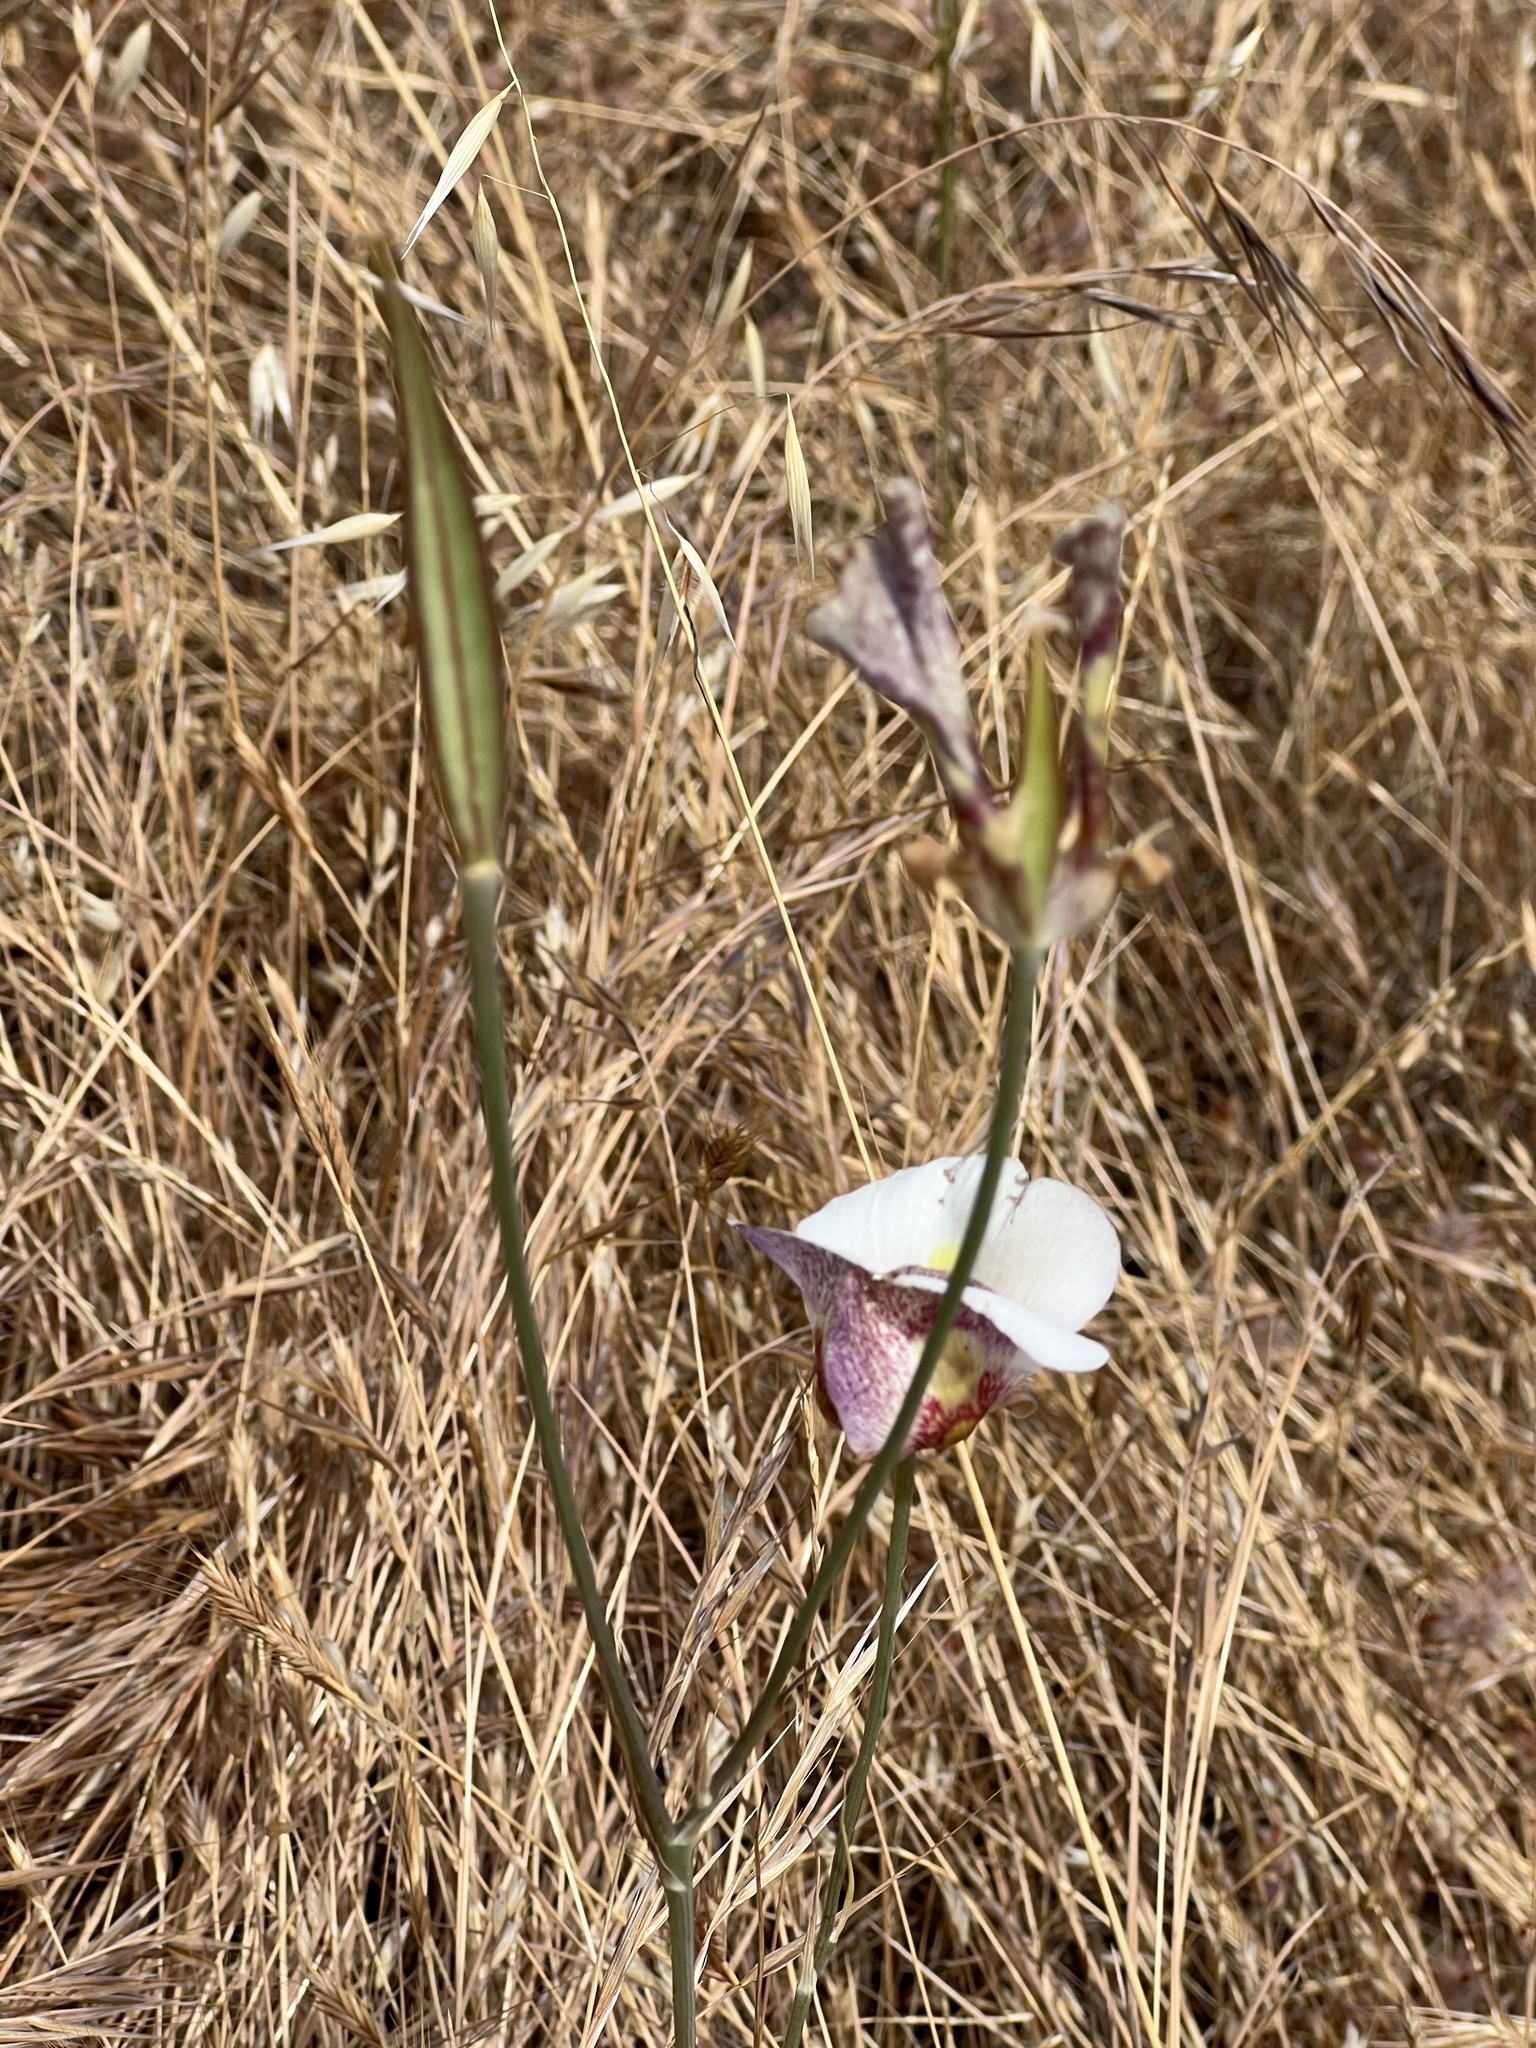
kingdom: Plantae
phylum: Tracheophyta
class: Liliopsida
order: Liliales
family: Liliaceae
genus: Calochortus
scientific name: Calochortus argillosus
